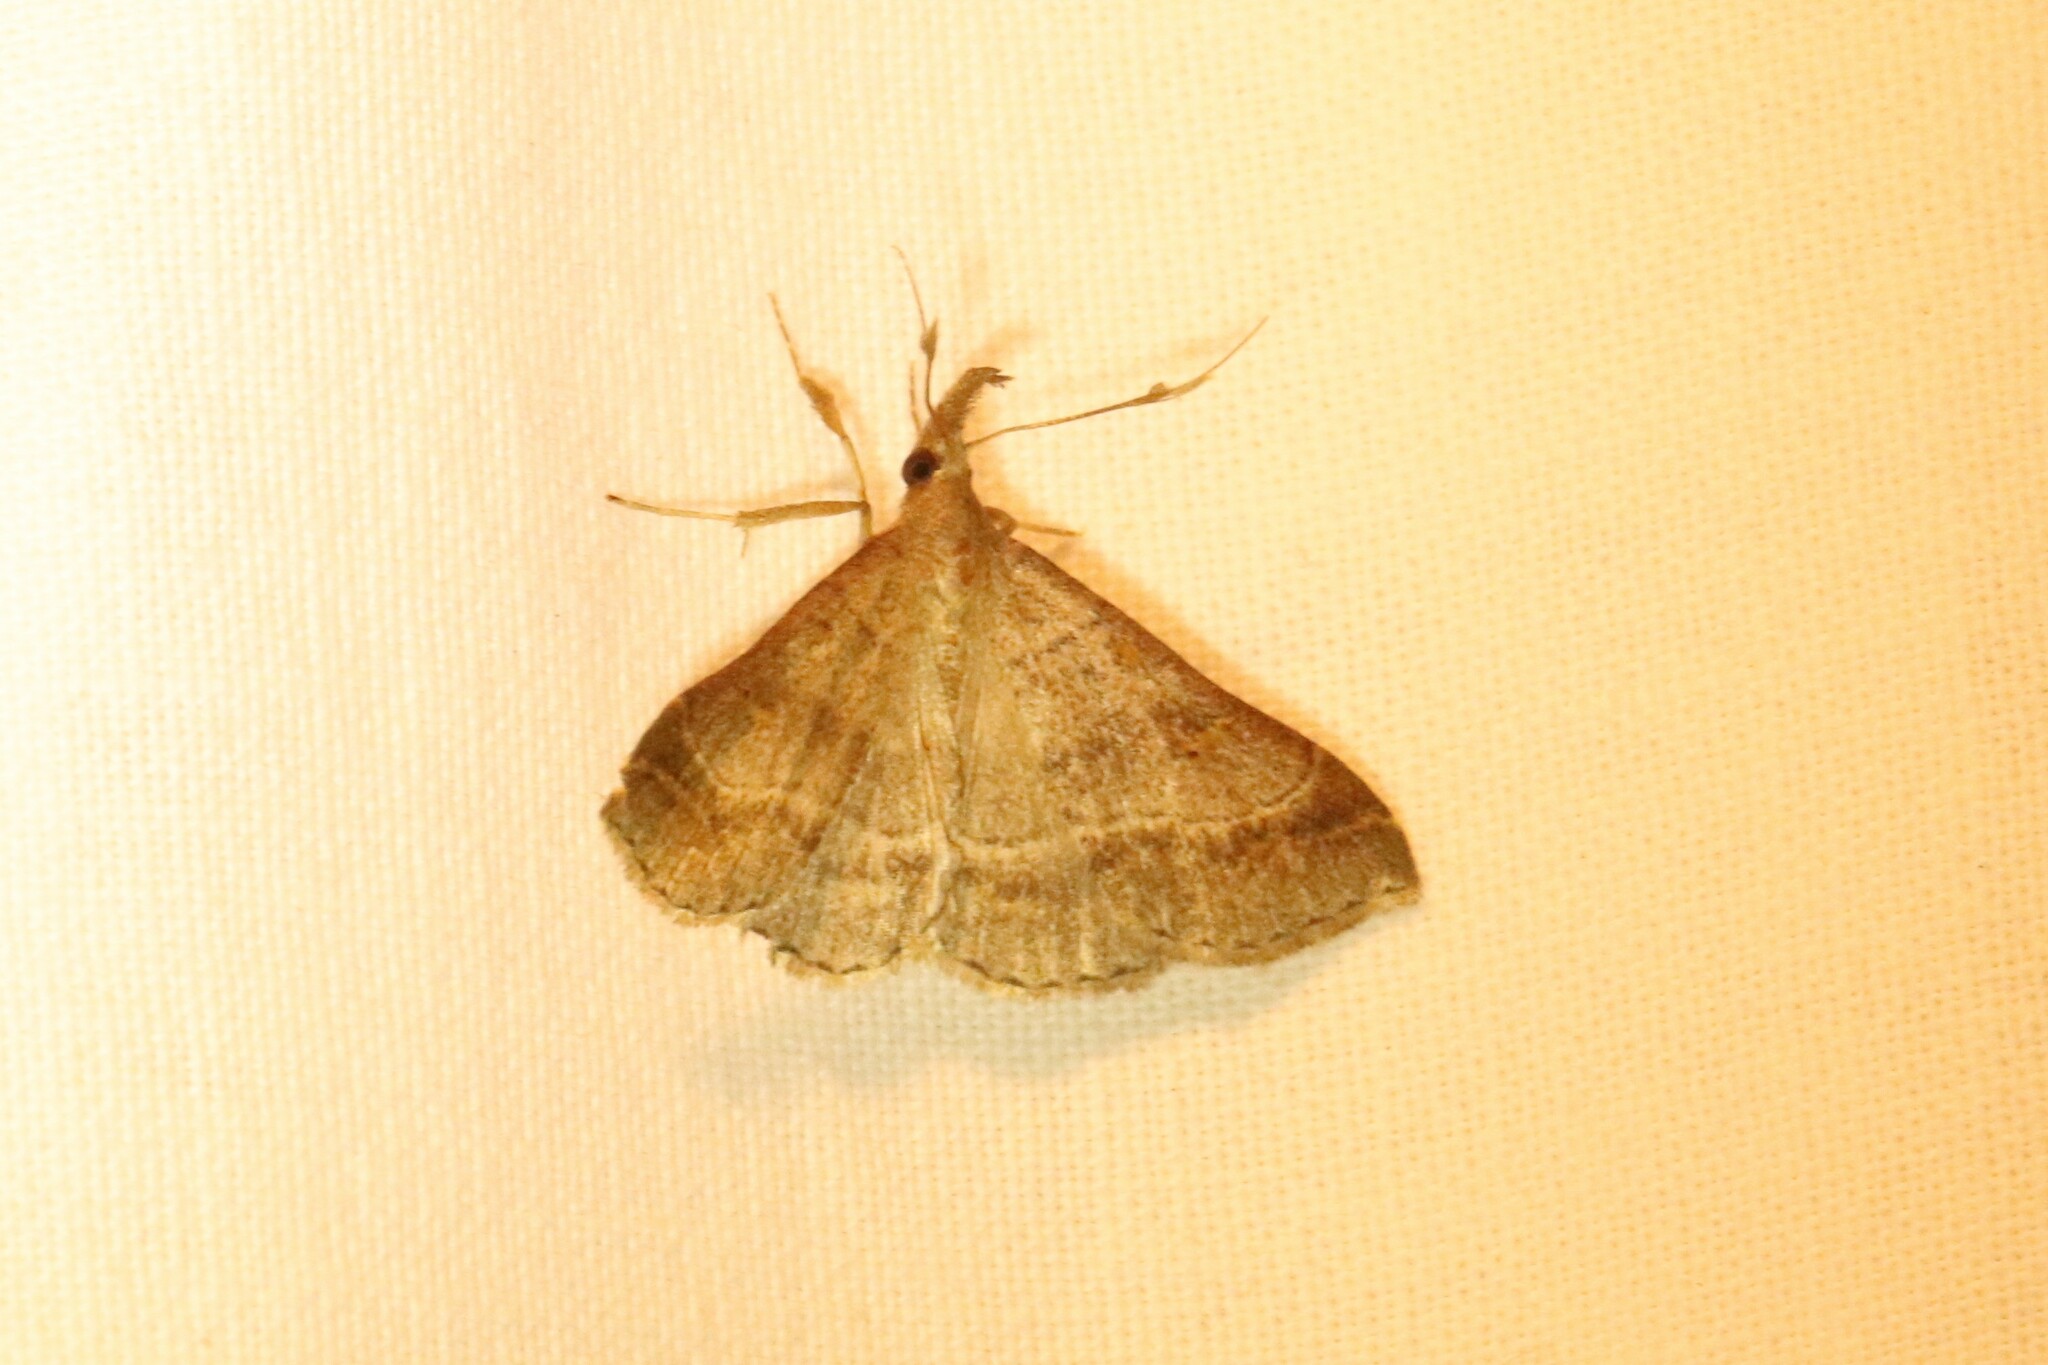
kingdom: Animalia
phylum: Arthropoda
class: Insecta
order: Lepidoptera
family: Erebidae
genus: Renia
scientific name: Renia flavipunctalis
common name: Yellow-spotted renia moth
